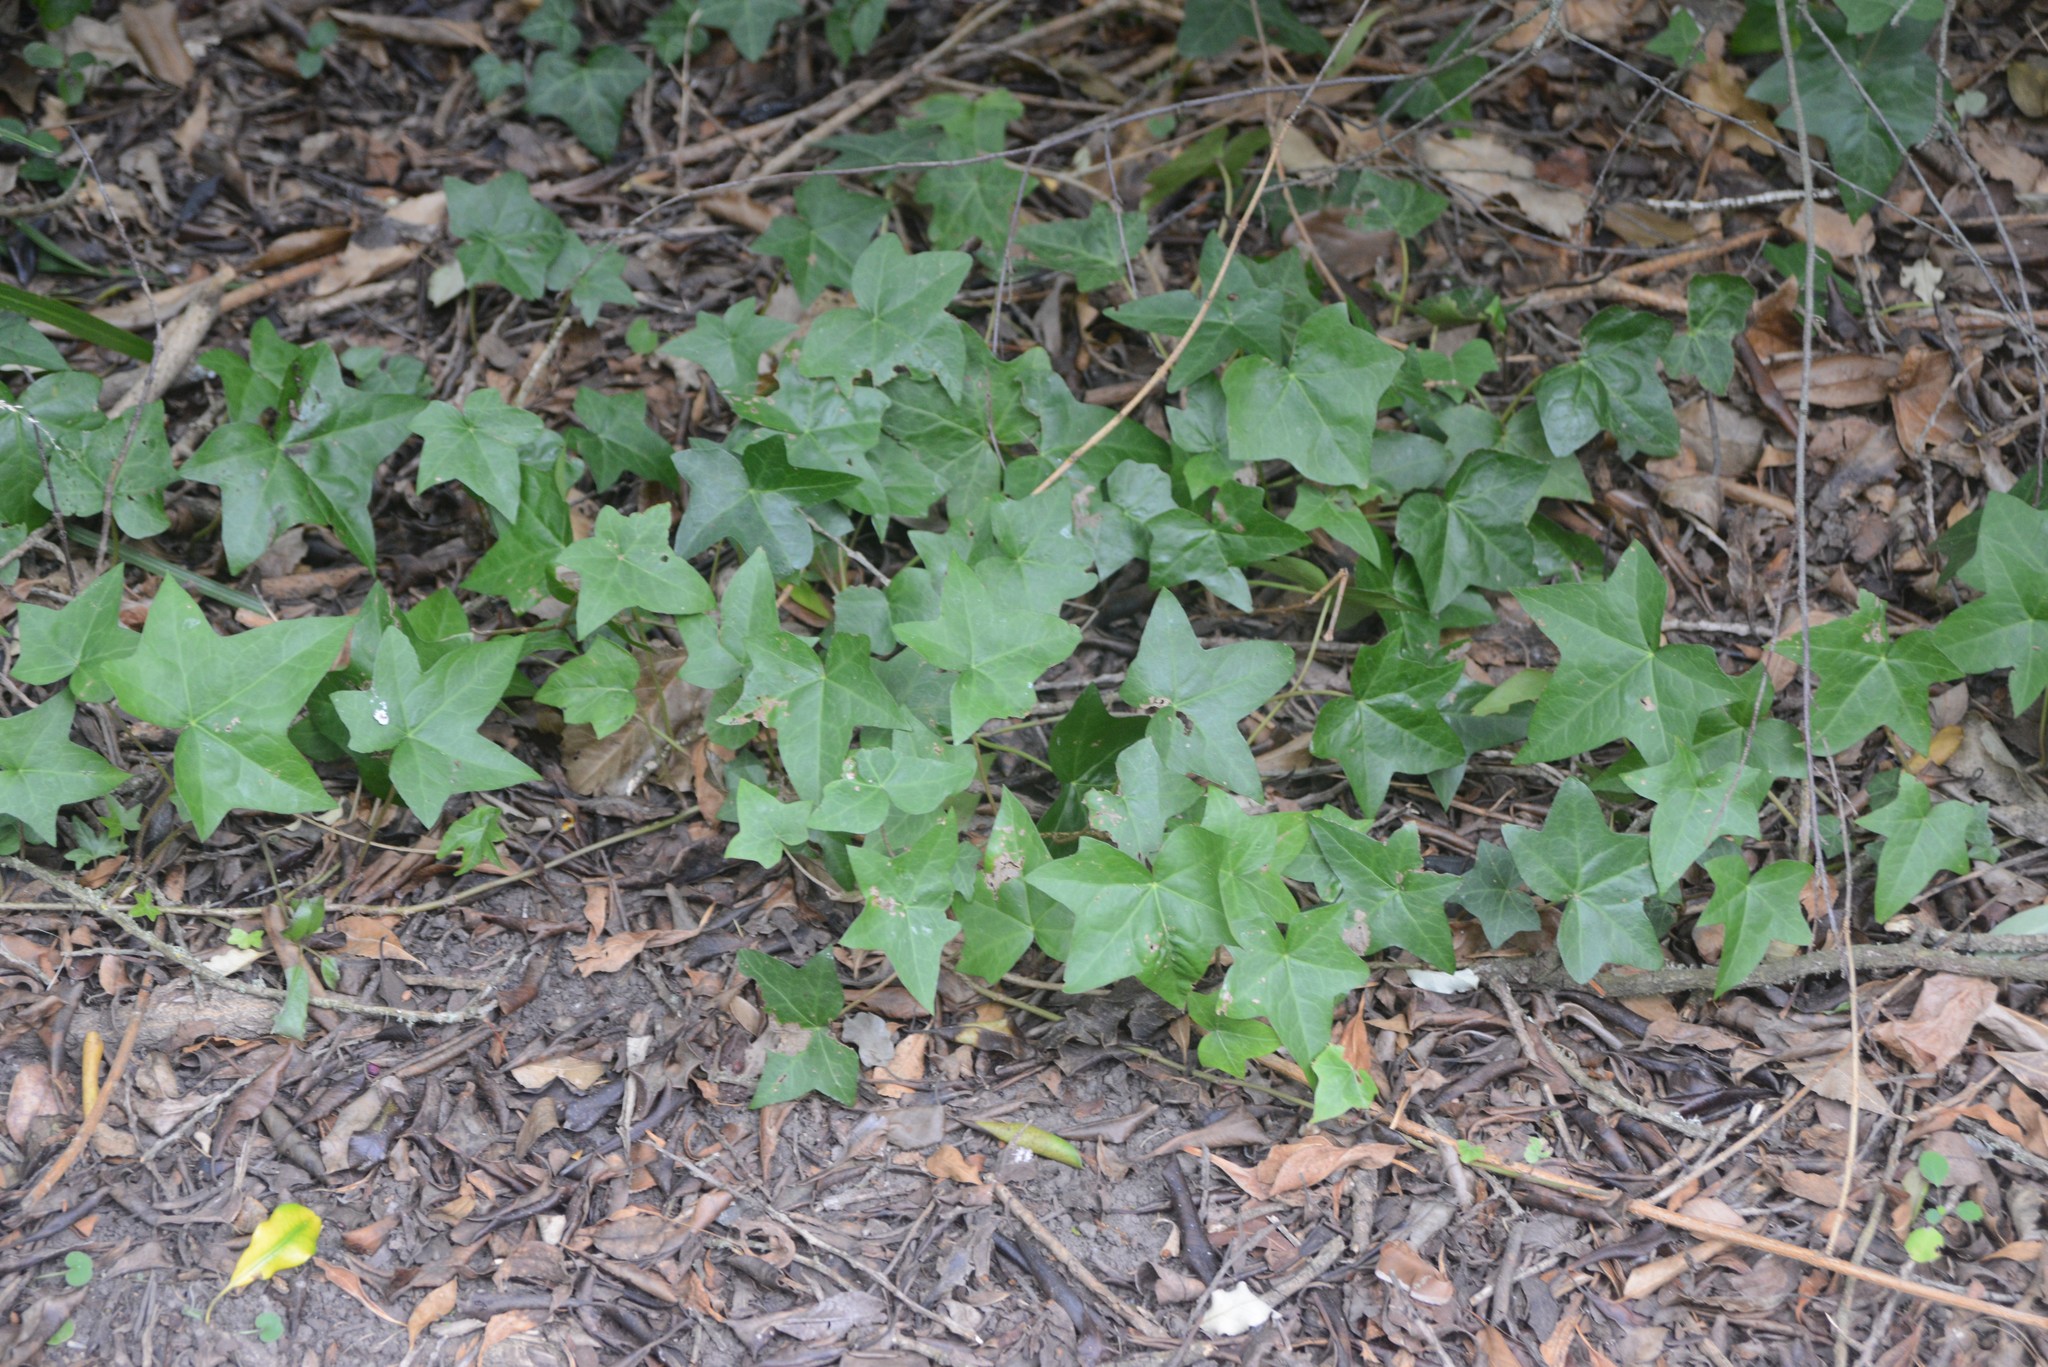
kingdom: Plantae
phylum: Tracheophyta
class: Magnoliopsida
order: Apiales
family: Araliaceae
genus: Hedera
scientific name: Hedera helix
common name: Ivy
